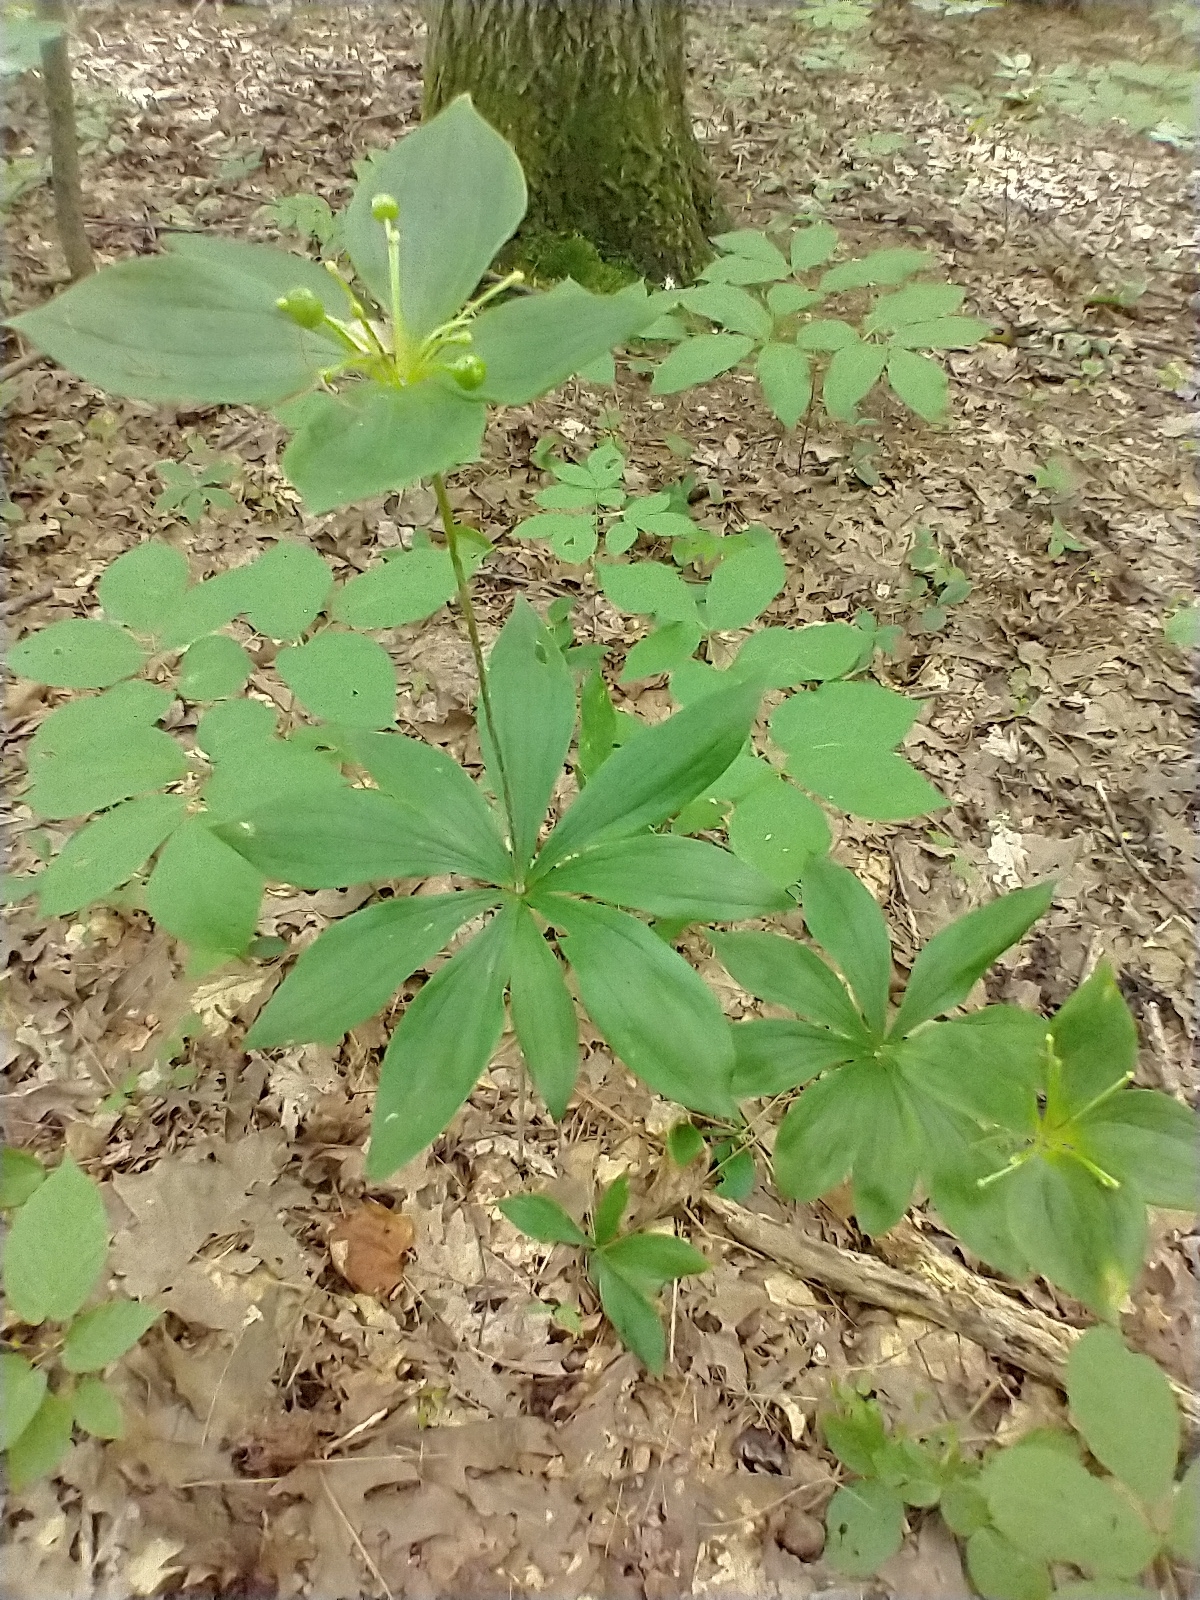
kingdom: Plantae
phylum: Tracheophyta
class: Liliopsida
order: Liliales
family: Liliaceae
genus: Medeola
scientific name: Medeola virginiana
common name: Indian cucumber-root
